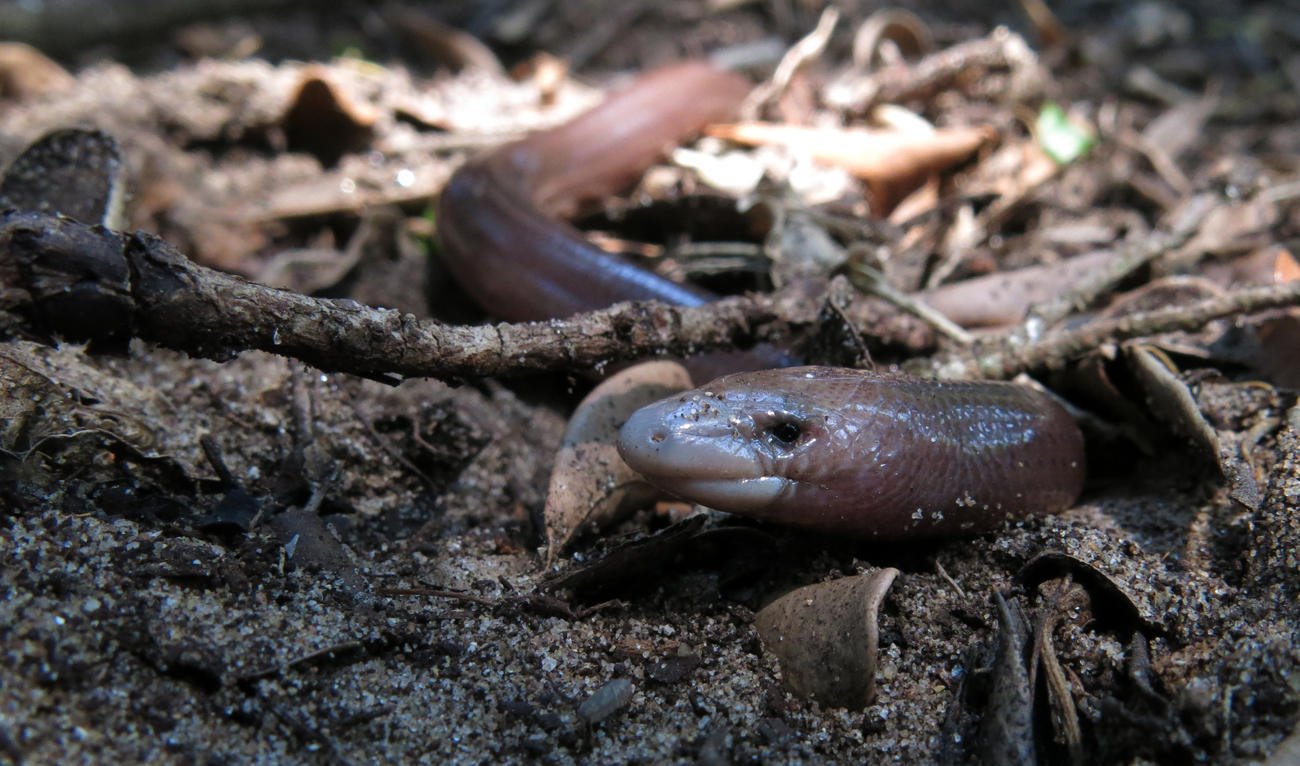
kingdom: Animalia
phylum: Chordata
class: Squamata
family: Scincidae
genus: Acontias
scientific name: Acontias plumbeus
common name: Giant lance skink
